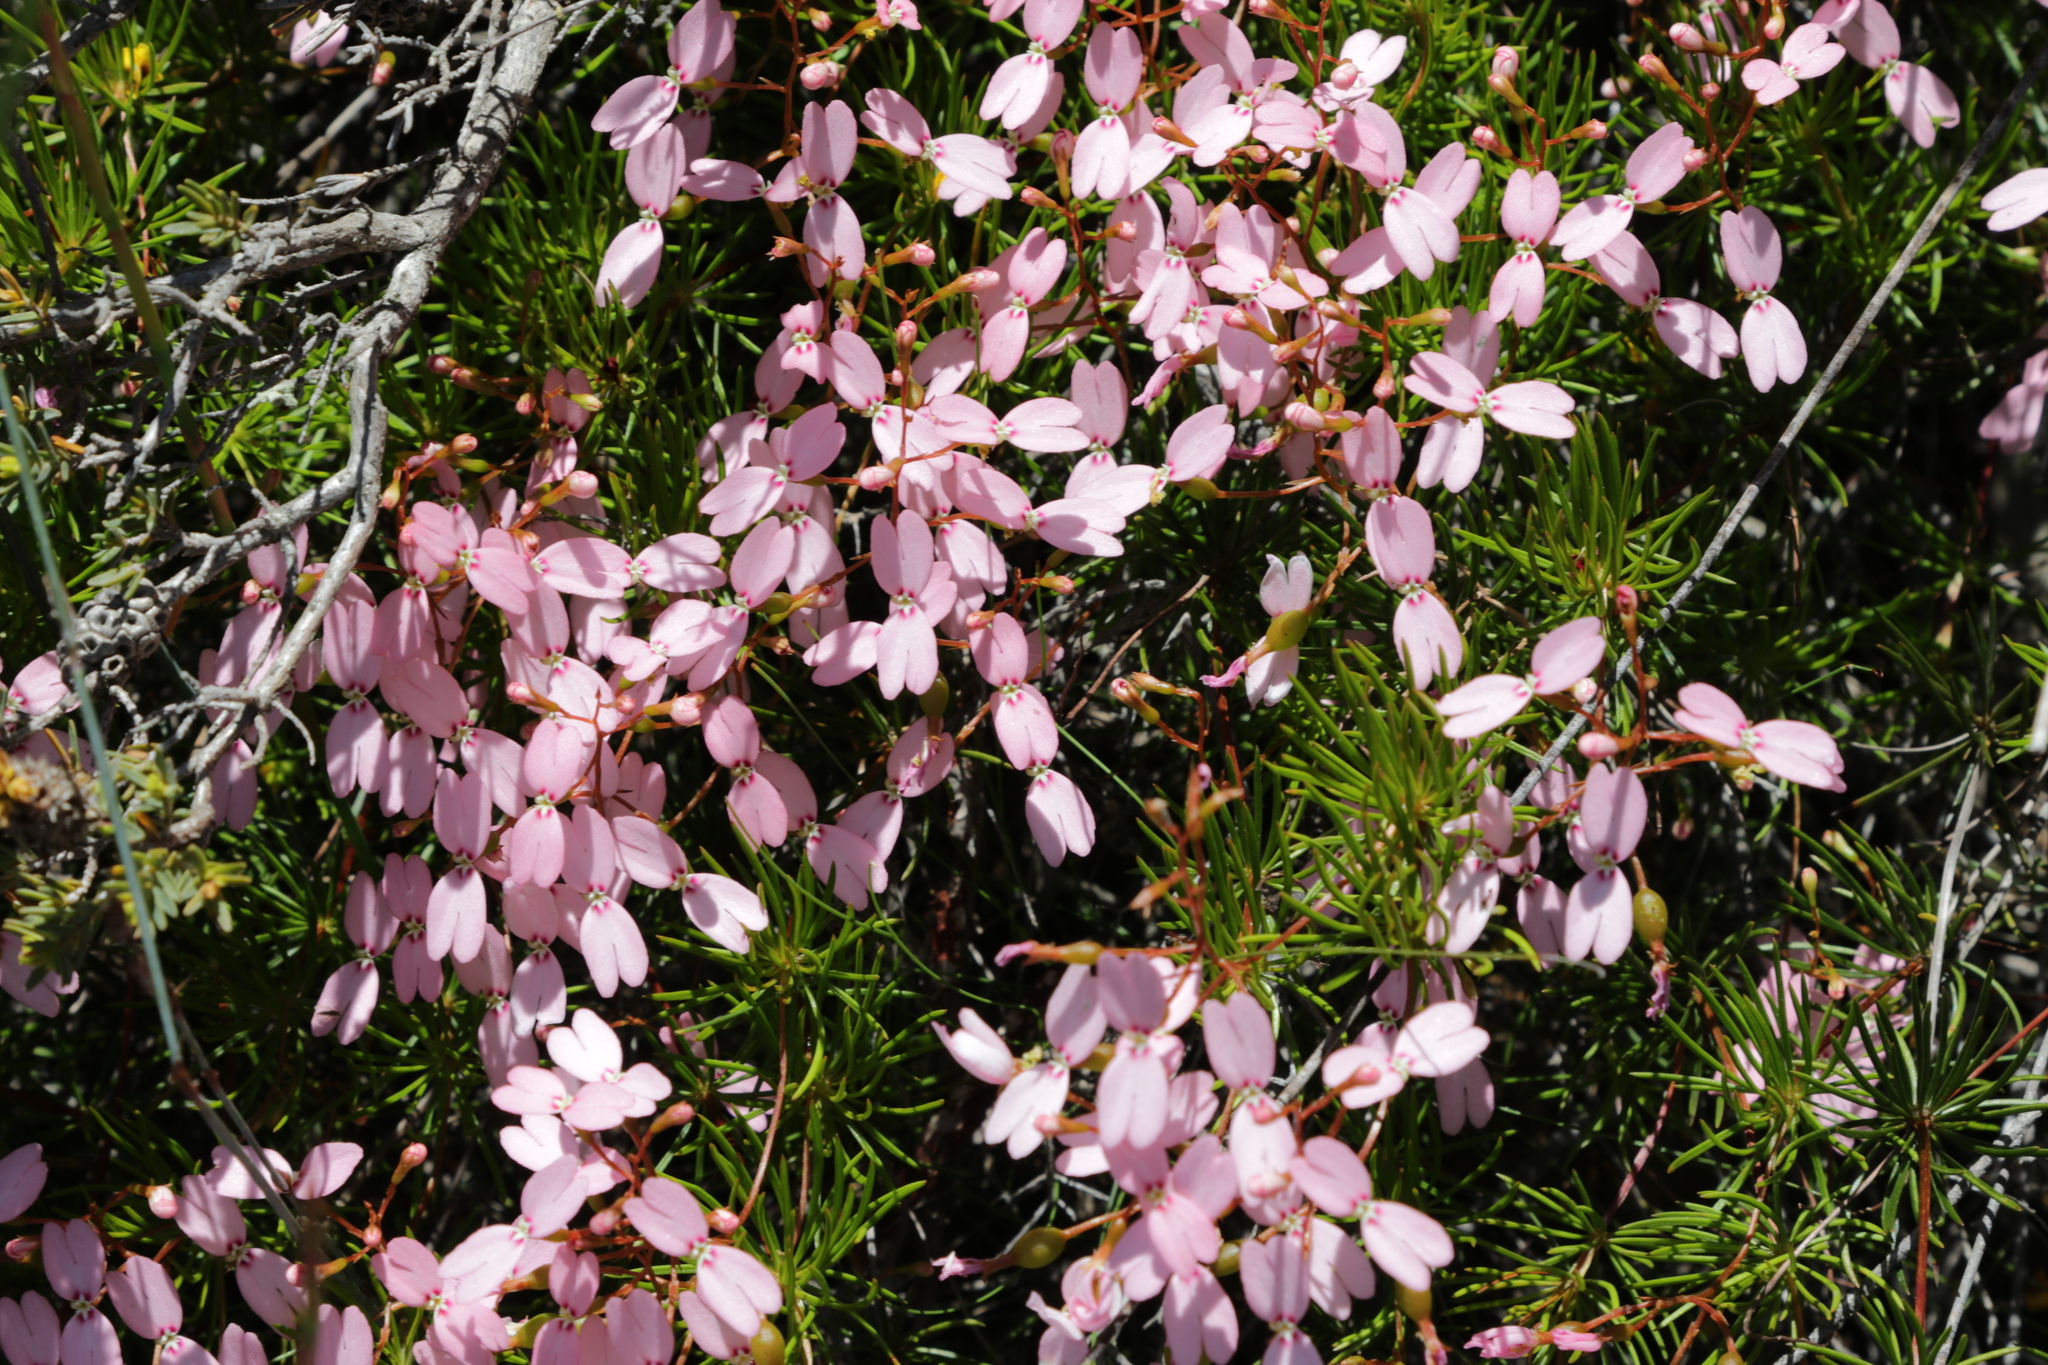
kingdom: Plantae
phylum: Tracheophyta
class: Magnoliopsida
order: Asterales
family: Stylidiaceae
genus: Stylidium
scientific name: Stylidium nonscandens
